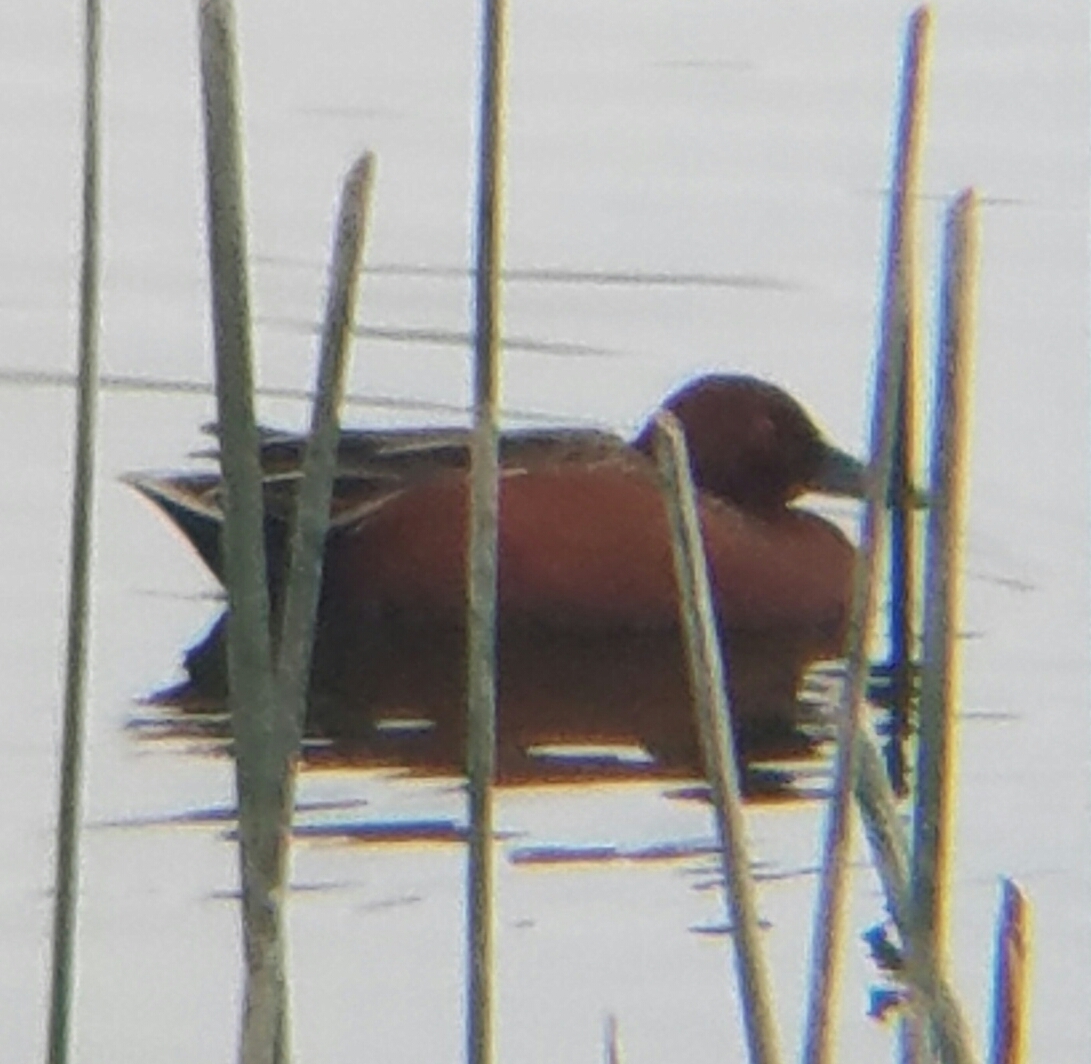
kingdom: Animalia
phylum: Chordata
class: Aves
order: Anseriformes
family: Anatidae
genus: Spatula
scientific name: Spatula cyanoptera
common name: Cinnamon teal
